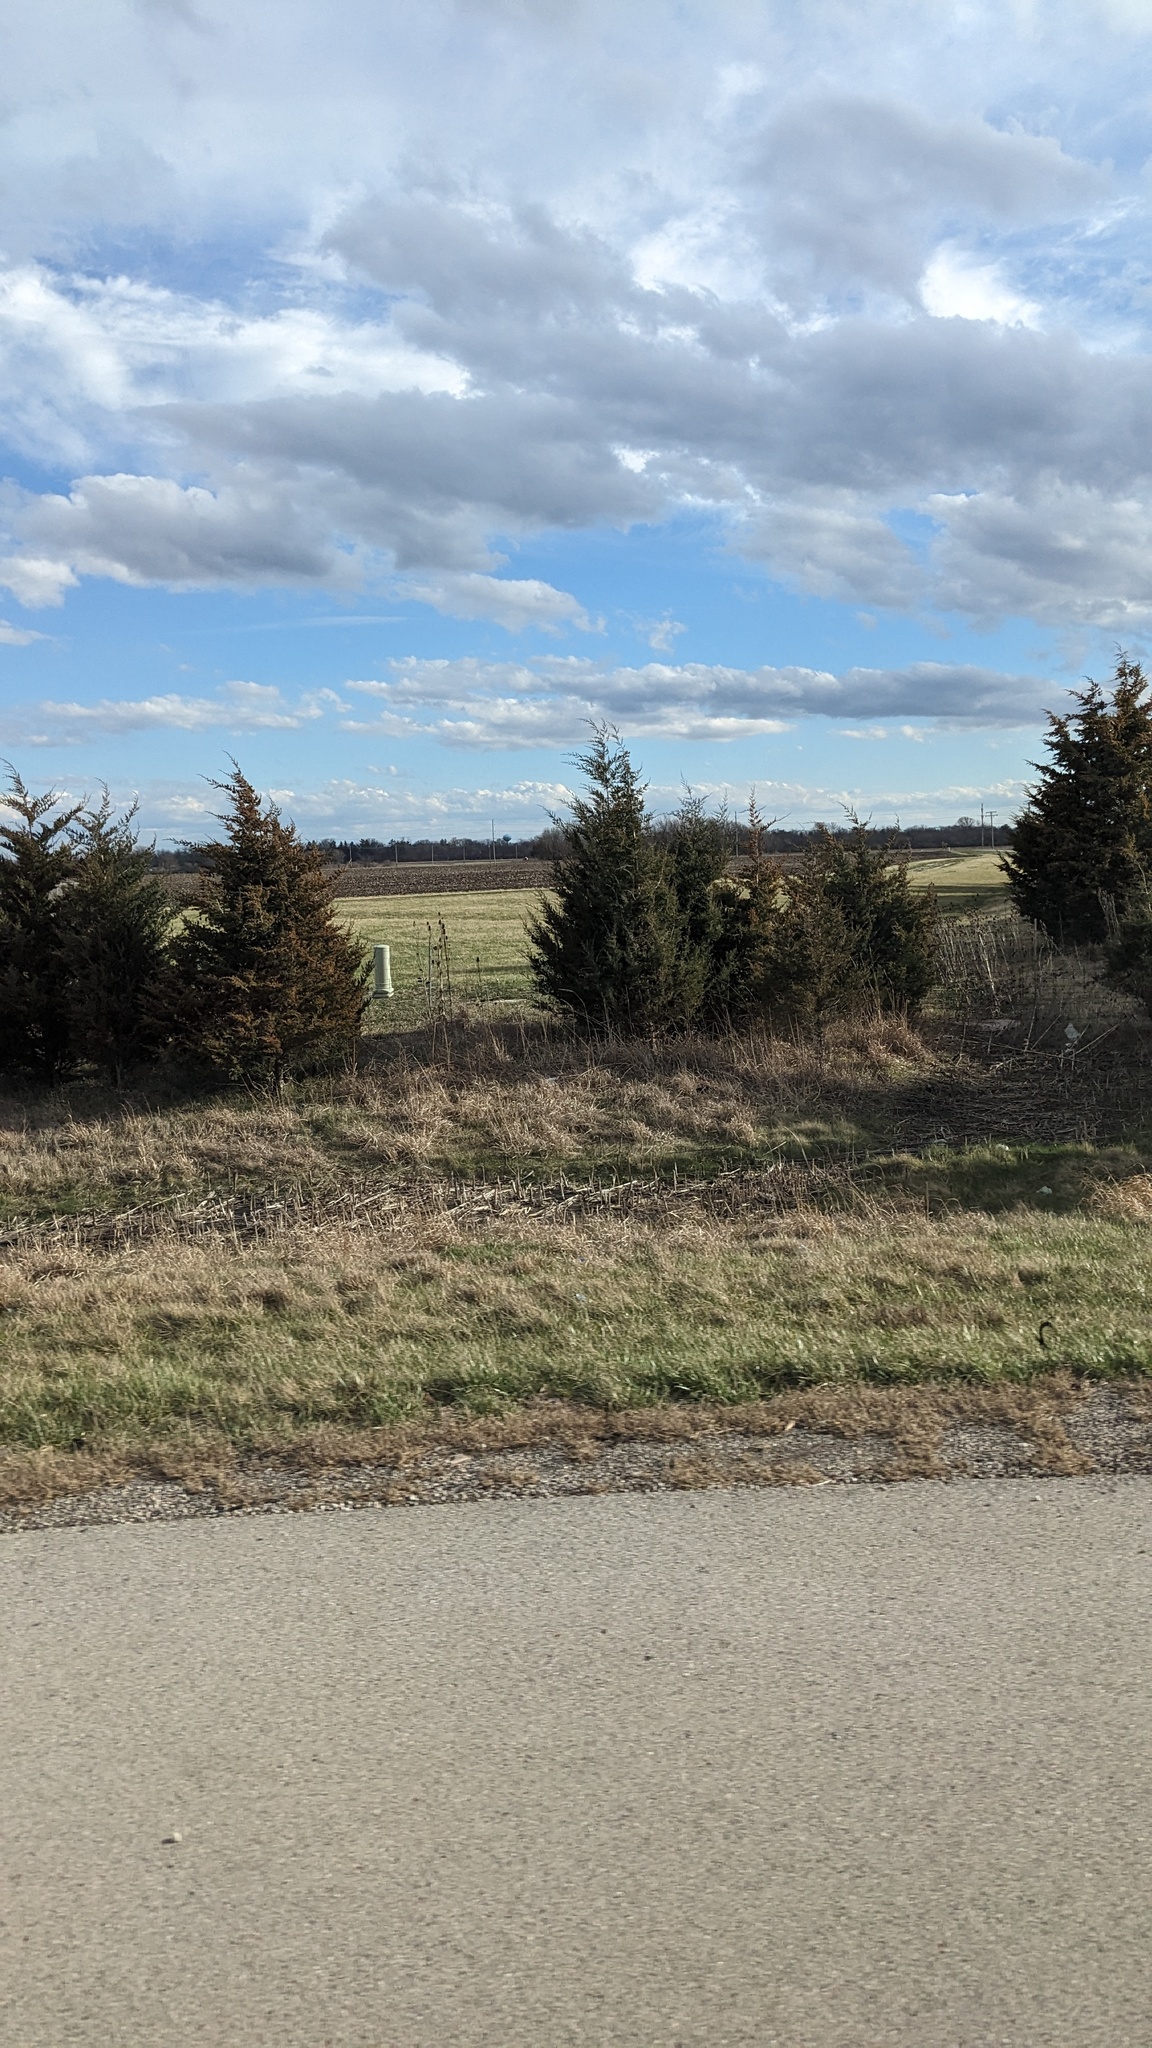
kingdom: Plantae
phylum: Tracheophyta
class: Pinopsida
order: Pinales
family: Cupressaceae
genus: Juniperus
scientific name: Juniperus virginiana
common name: Red juniper
